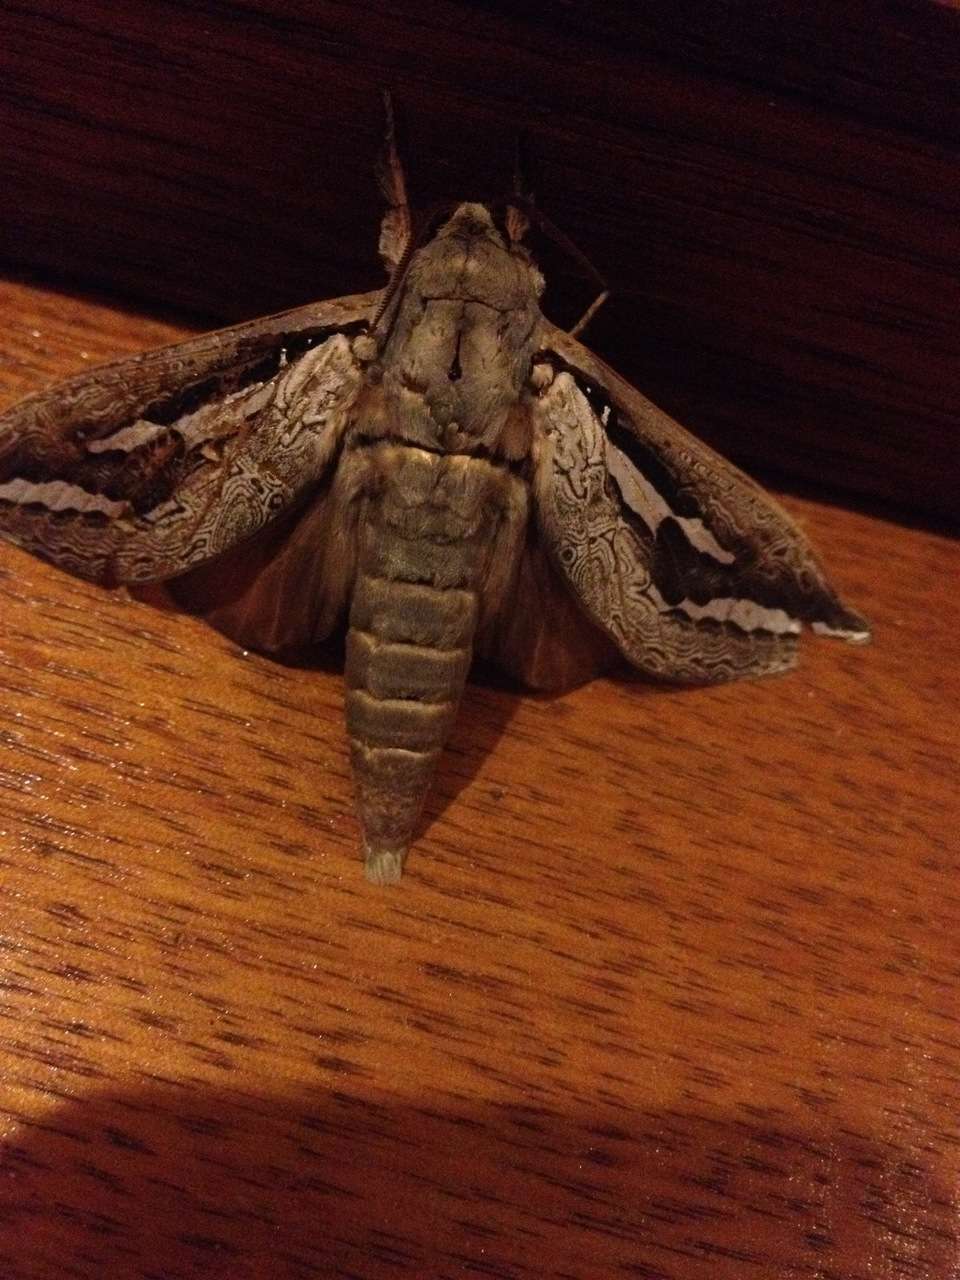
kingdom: Animalia
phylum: Arthropoda
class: Insecta
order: Lepidoptera
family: Hepialidae
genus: Abantiades
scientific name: Abantiades labyrinthicus
